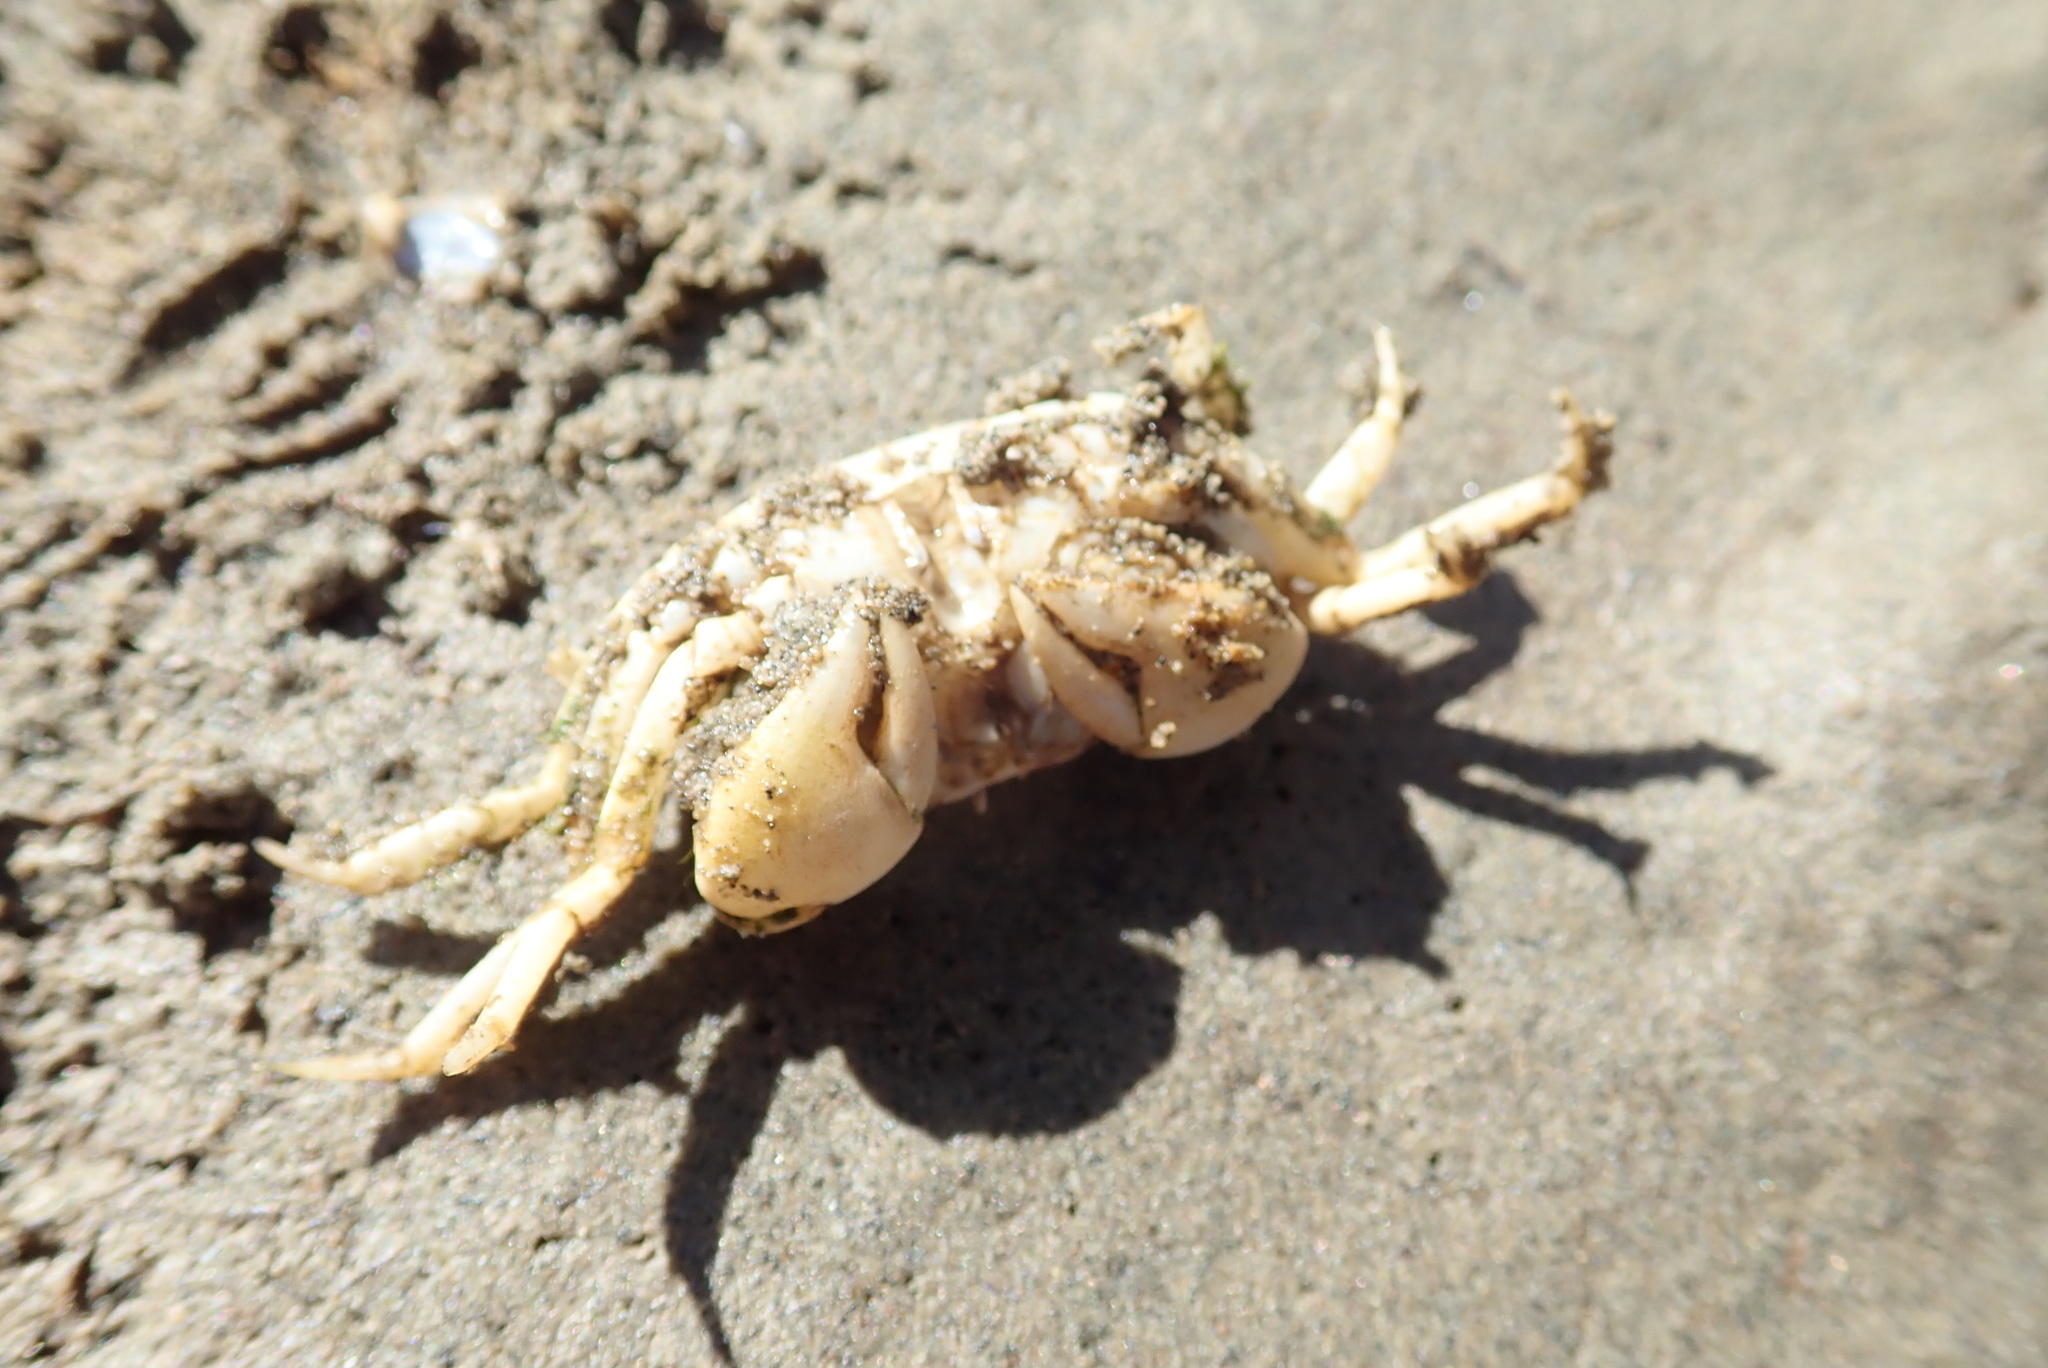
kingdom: Animalia
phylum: Arthropoda
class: Malacostraca
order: Decapoda
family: Varunidae
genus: Austrohelice
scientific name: Austrohelice crassa
